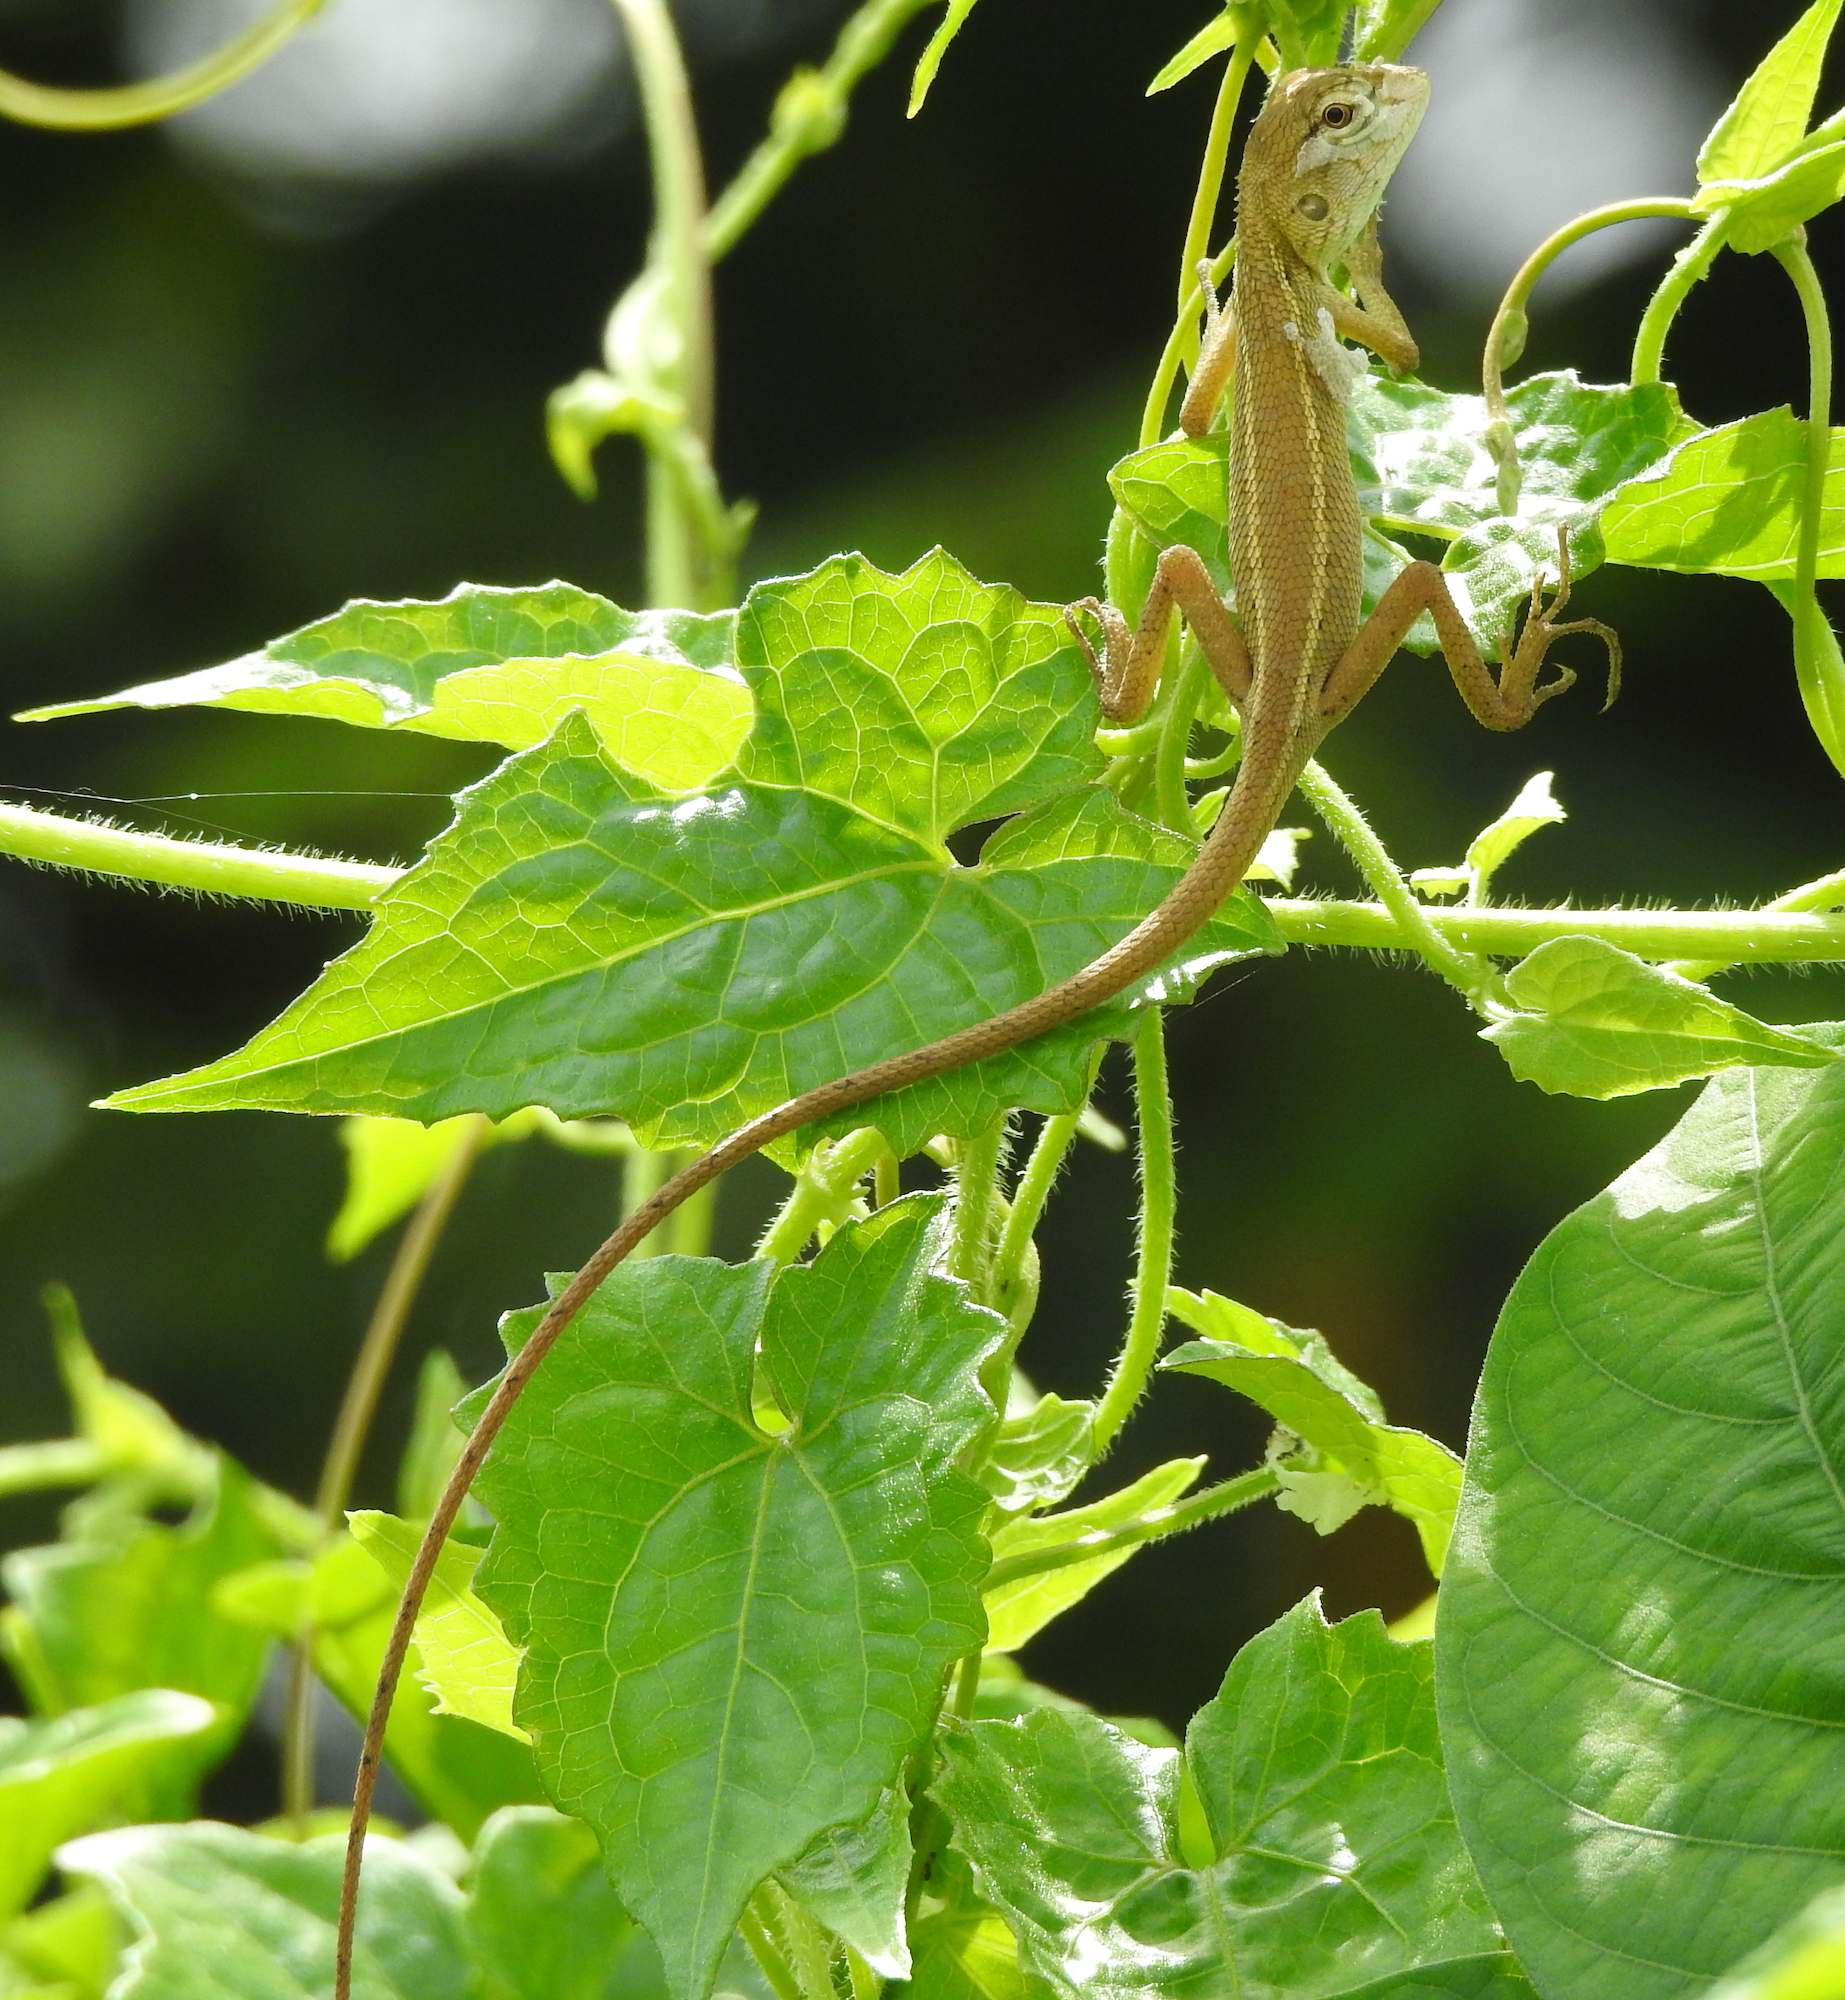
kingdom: Animalia
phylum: Chordata
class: Squamata
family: Agamidae
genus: Calotes
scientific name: Calotes versicolor
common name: Oriental garden lizard
